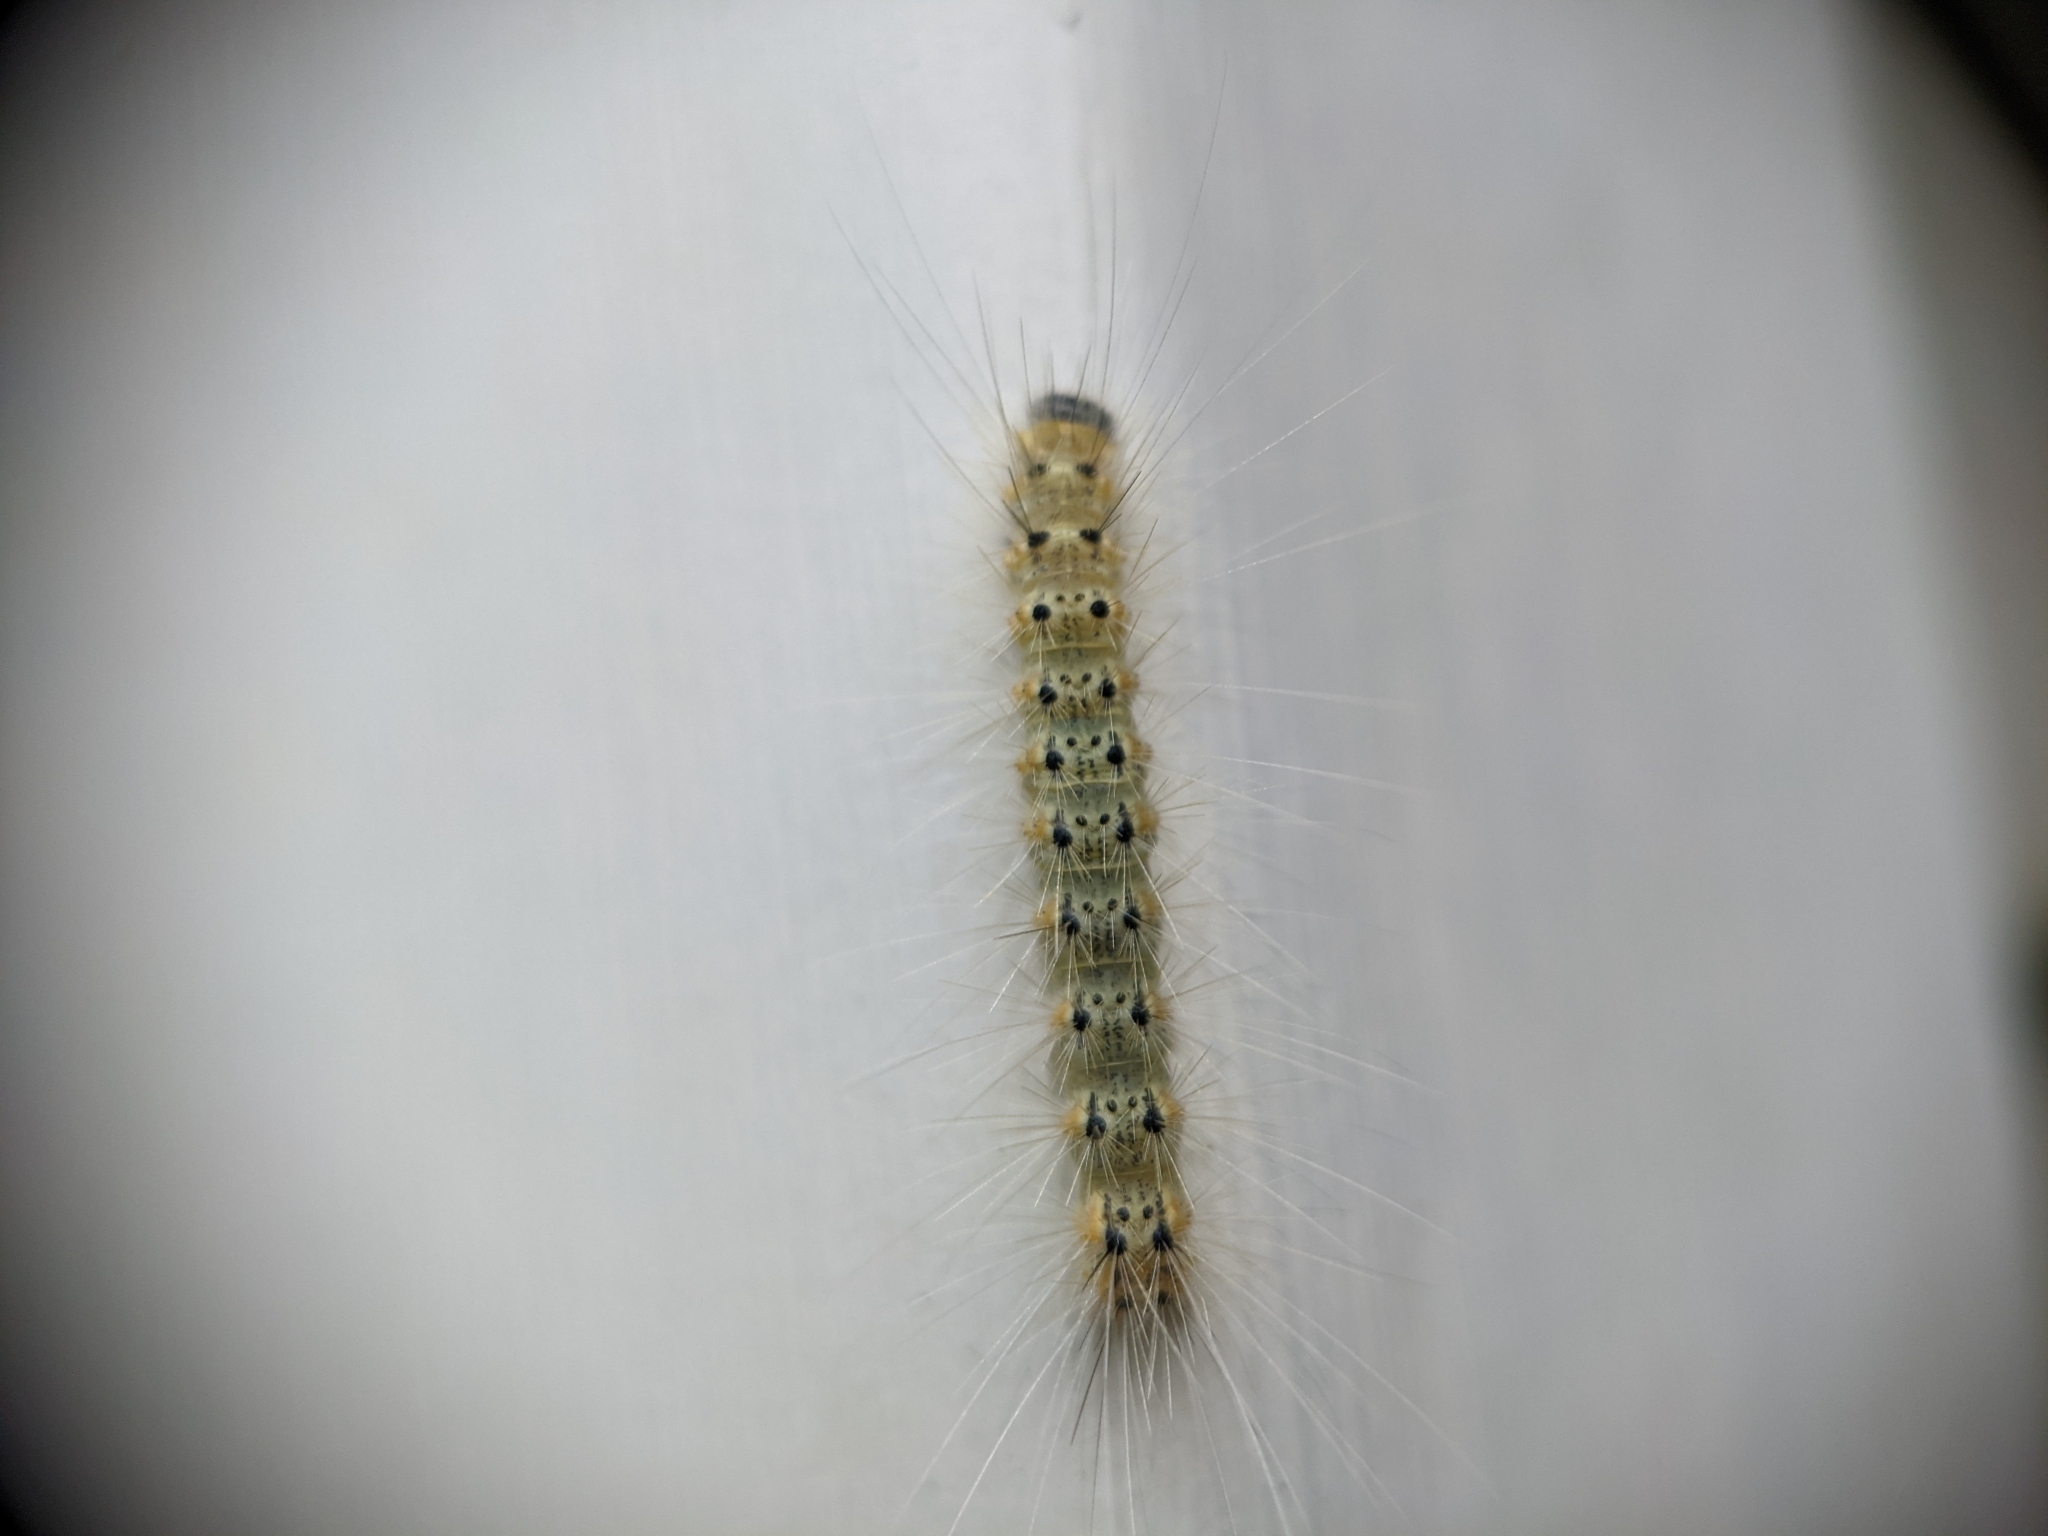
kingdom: Animalia
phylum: Arthropoda
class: Insecta
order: Lepidoptera
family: Erebidae
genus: Hyphantria
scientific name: Hyphantria cunea
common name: American white moth
